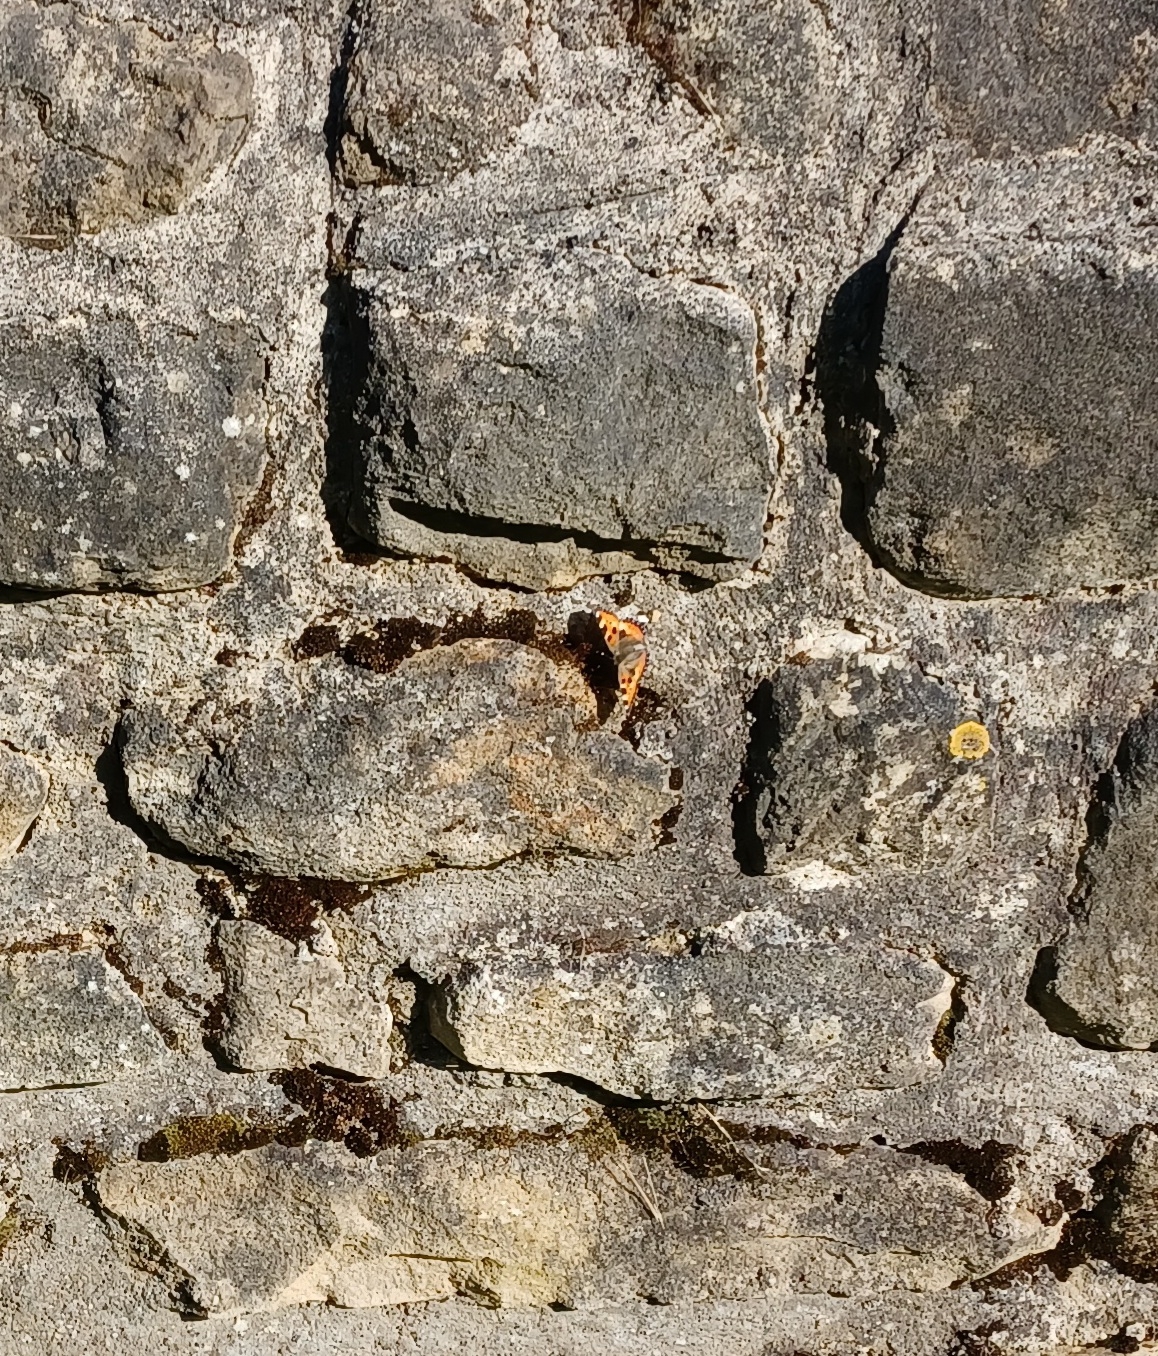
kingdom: Animalia
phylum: Arthropoda
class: Insecta
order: Lepidoptera
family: Nymphalidae
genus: Aglais
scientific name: Aglais urticae
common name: Small tortoiseshell
